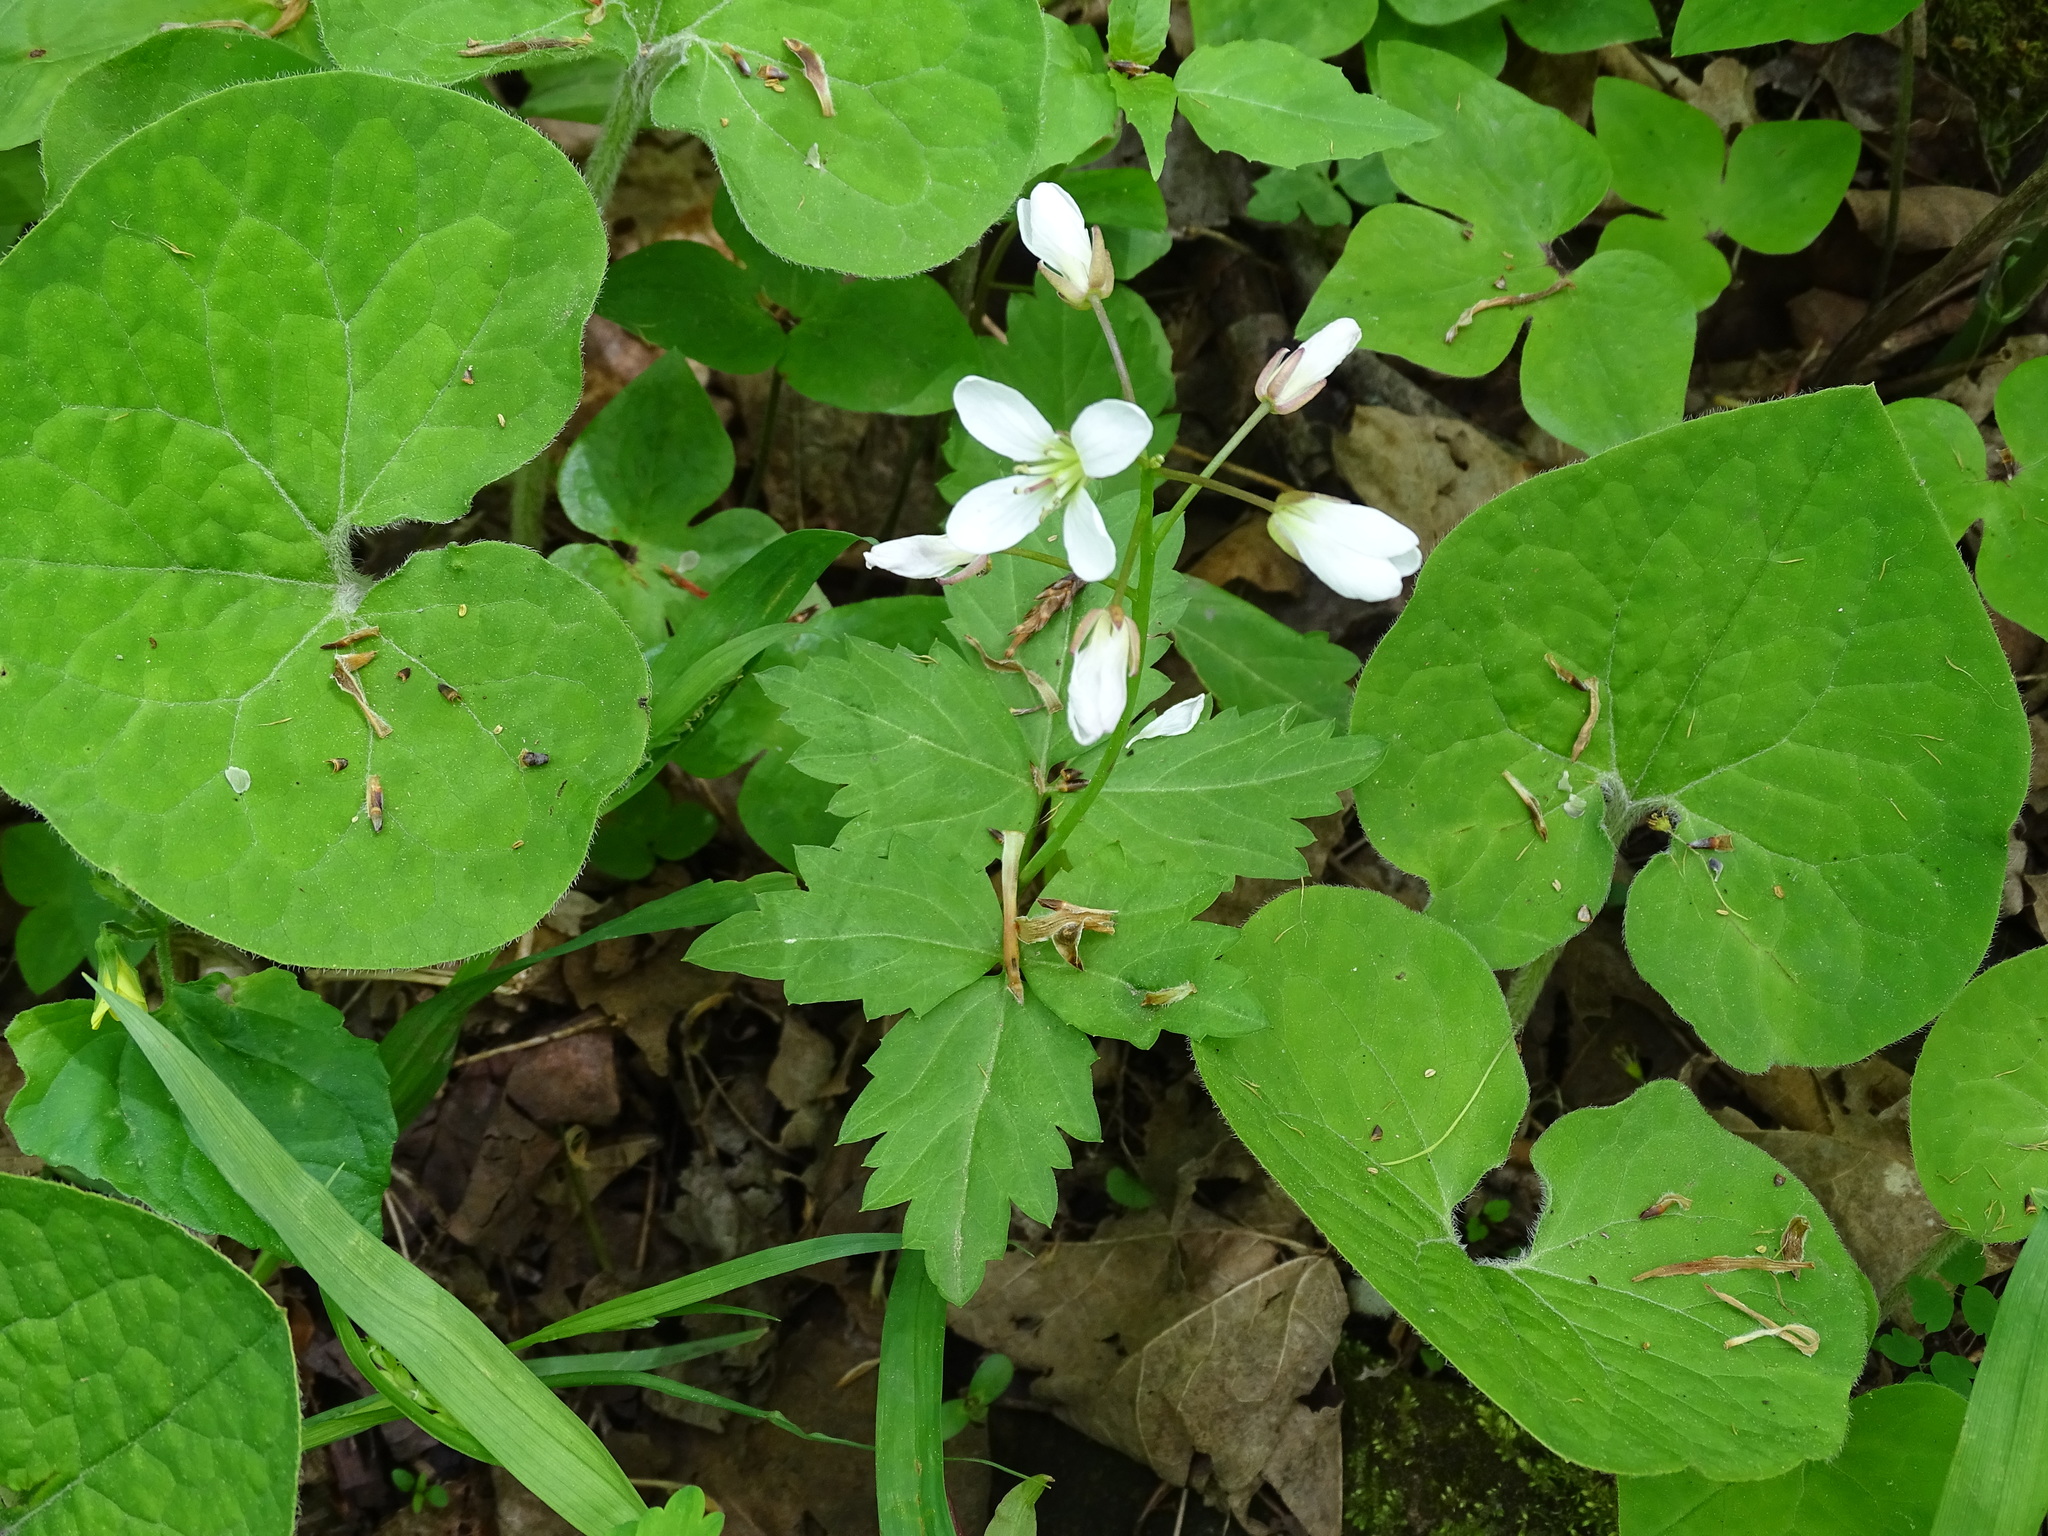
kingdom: Plantae
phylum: Tracheophyta
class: Magnoliopsida
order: Brassicales
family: Brassicaceae
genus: Cardamine
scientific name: Cardamine diphylla
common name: Broad-leaved toothwort
